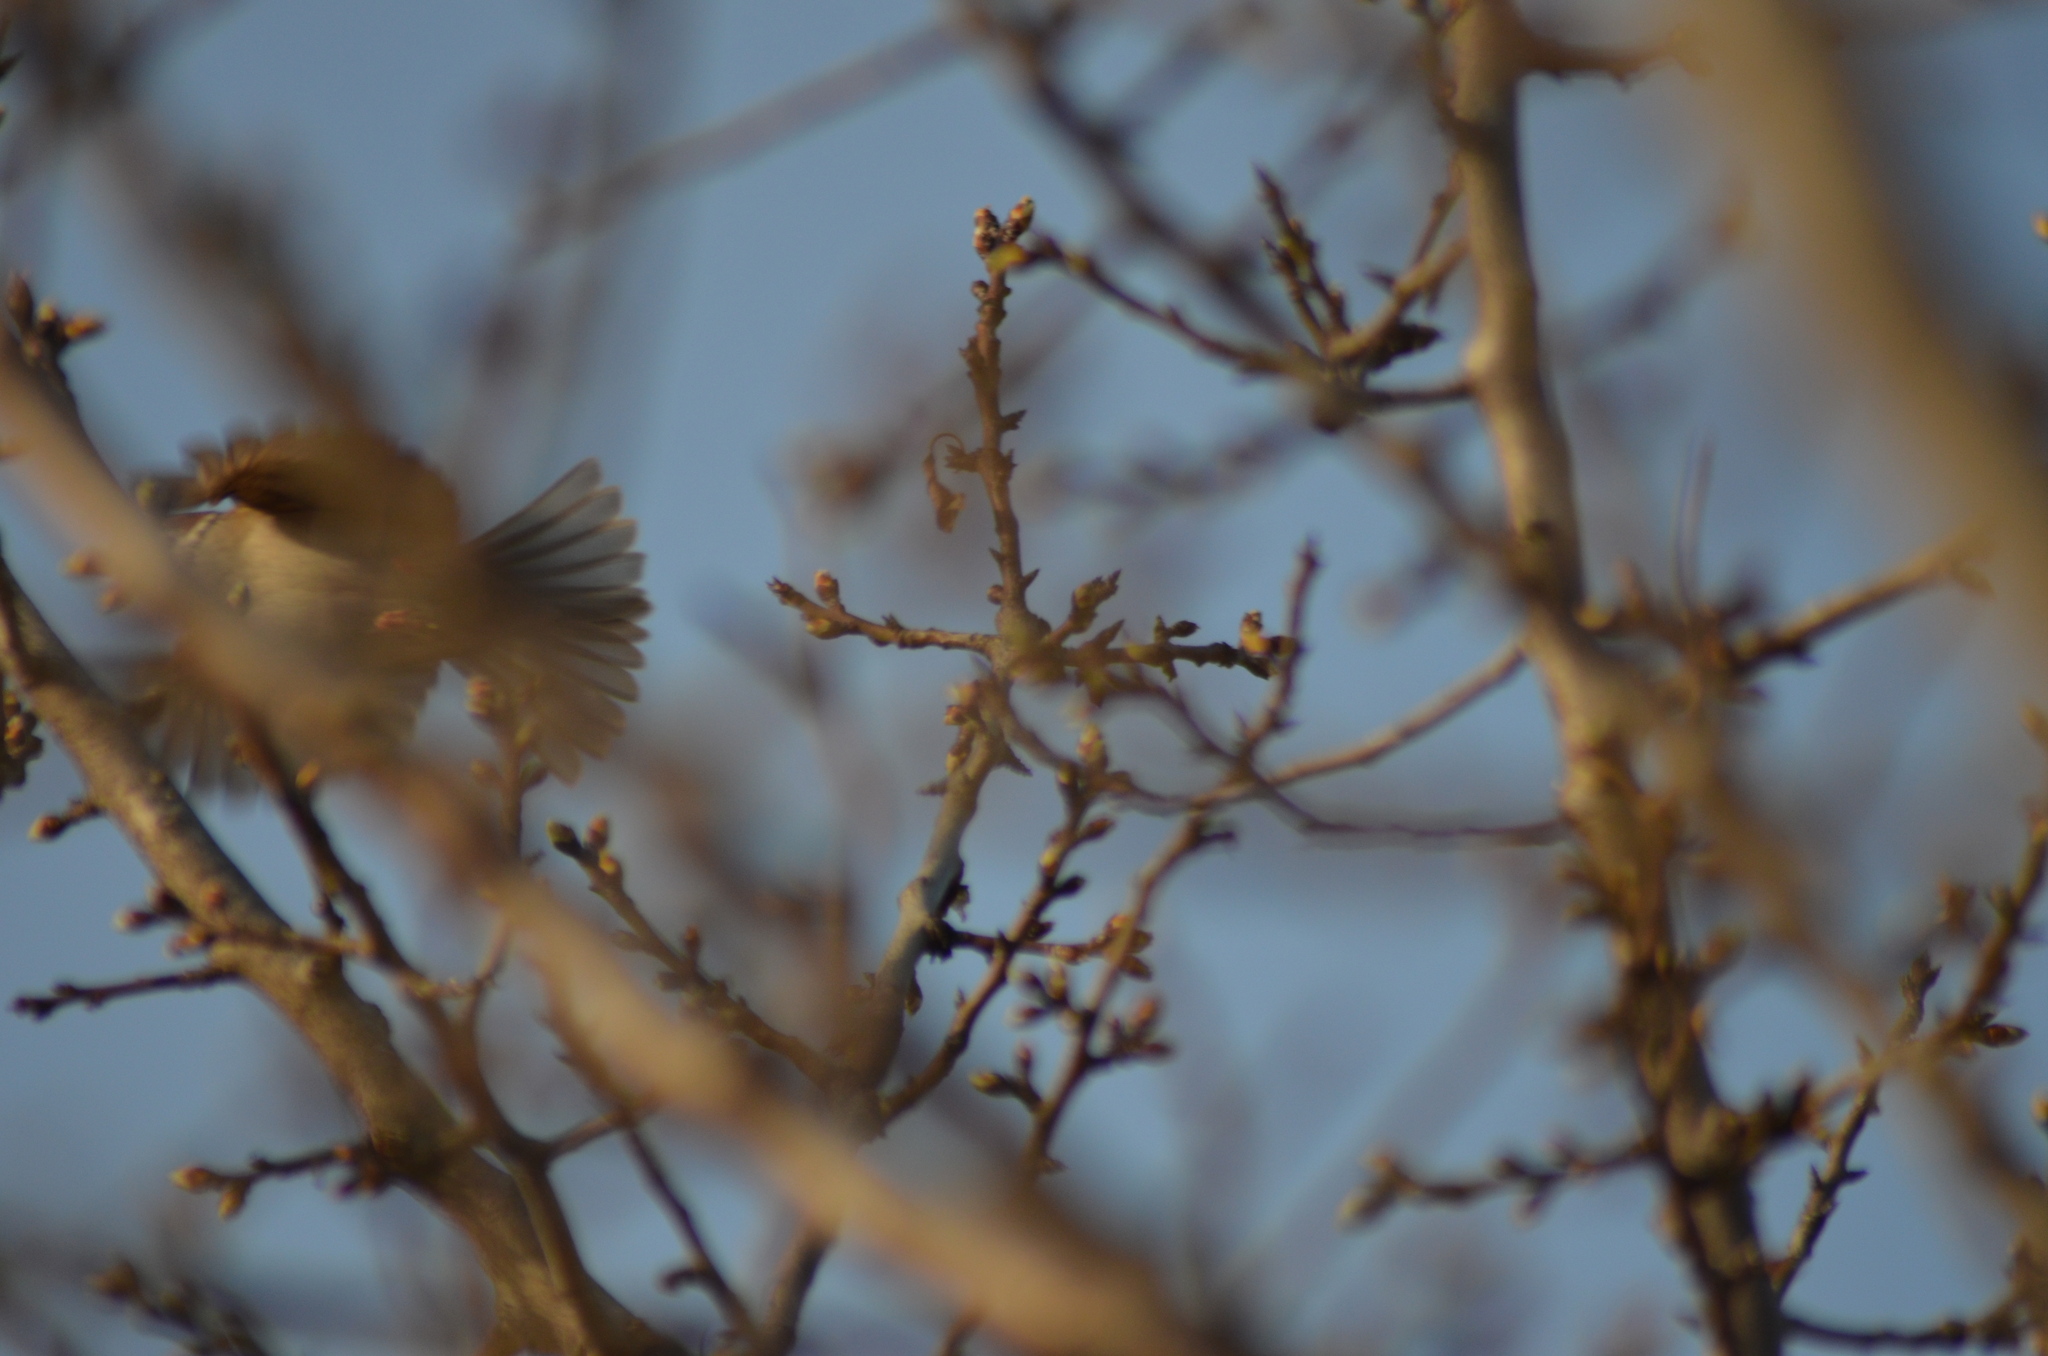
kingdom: Animalia
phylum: Chordata
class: Aves
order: Passeriformes
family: Passeridae
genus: Passer
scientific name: Passer montanus
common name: Eurasian tree sparrow
